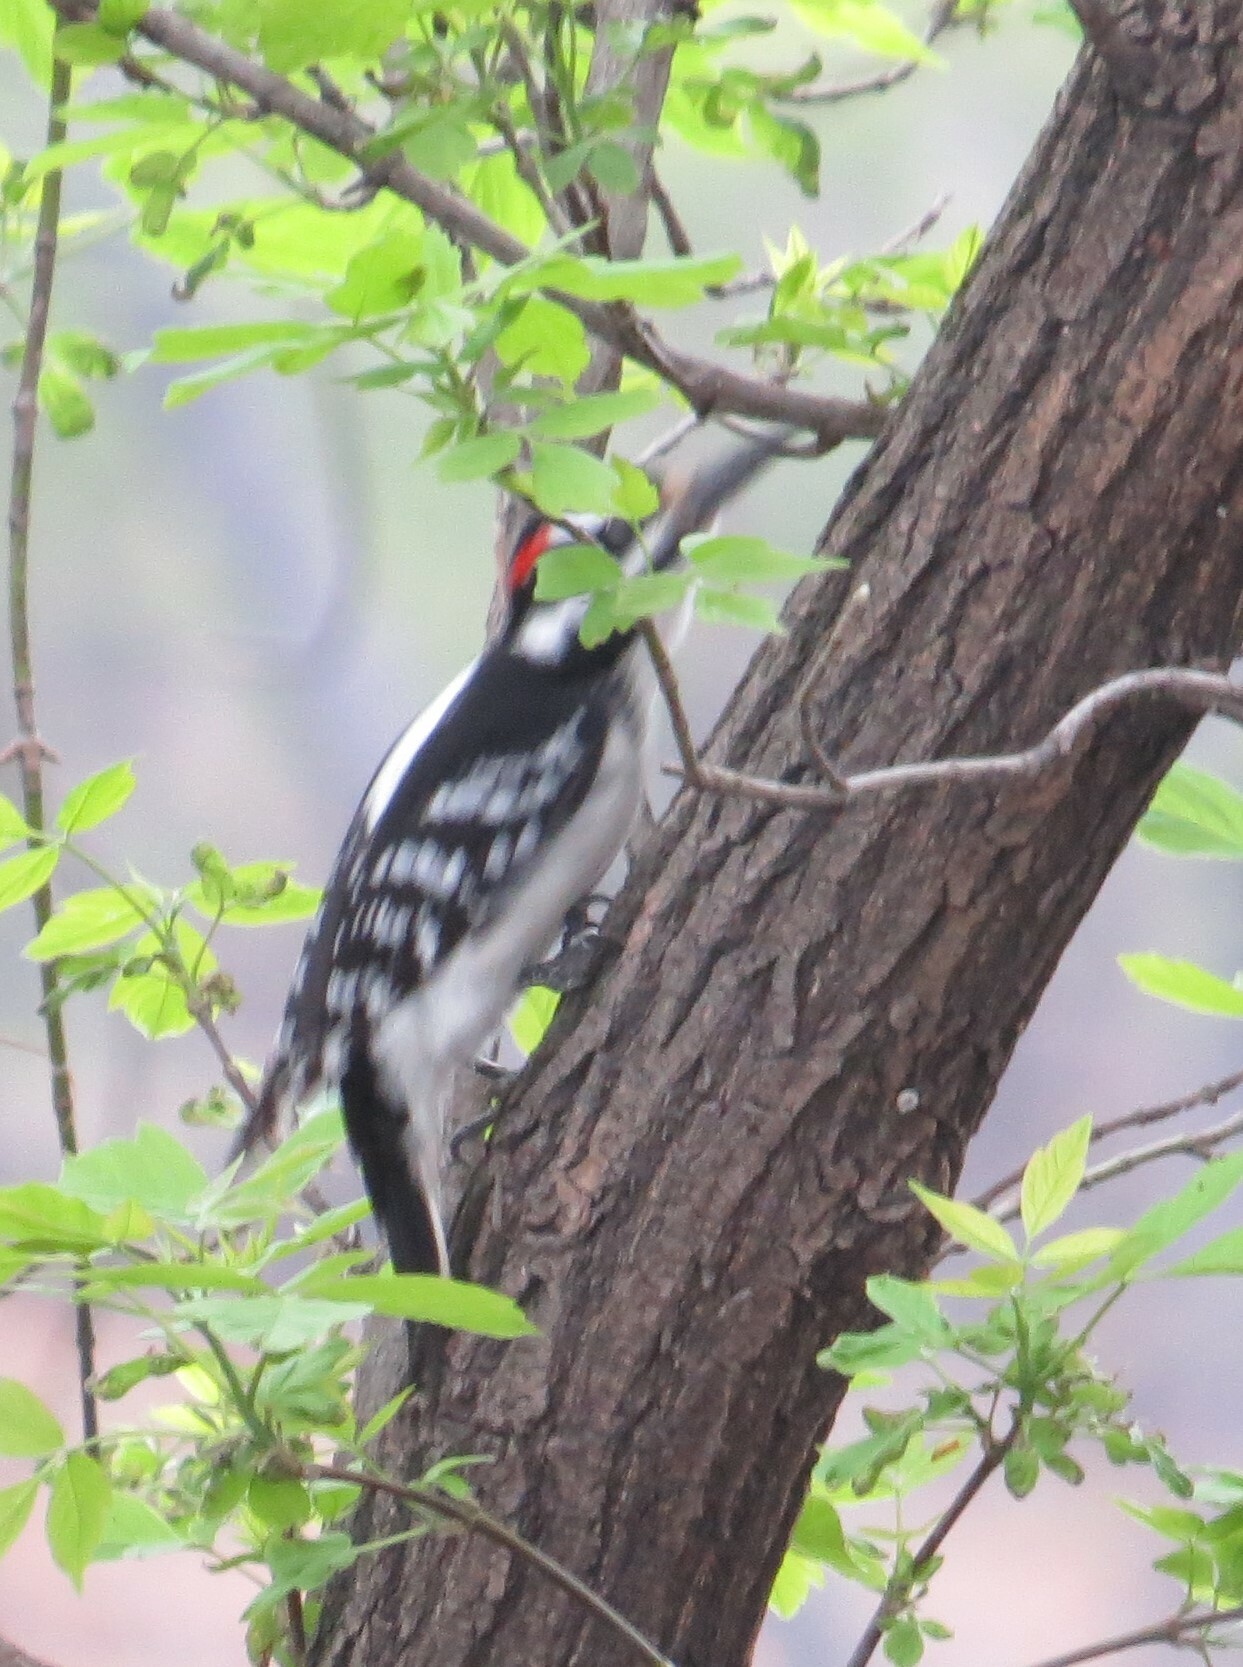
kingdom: Animalia
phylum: Chordata
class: Aves
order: Piciformes
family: Picidae
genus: Leuconotopicus
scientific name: Leuconotopicus villosus
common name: Hairy woodpecker
